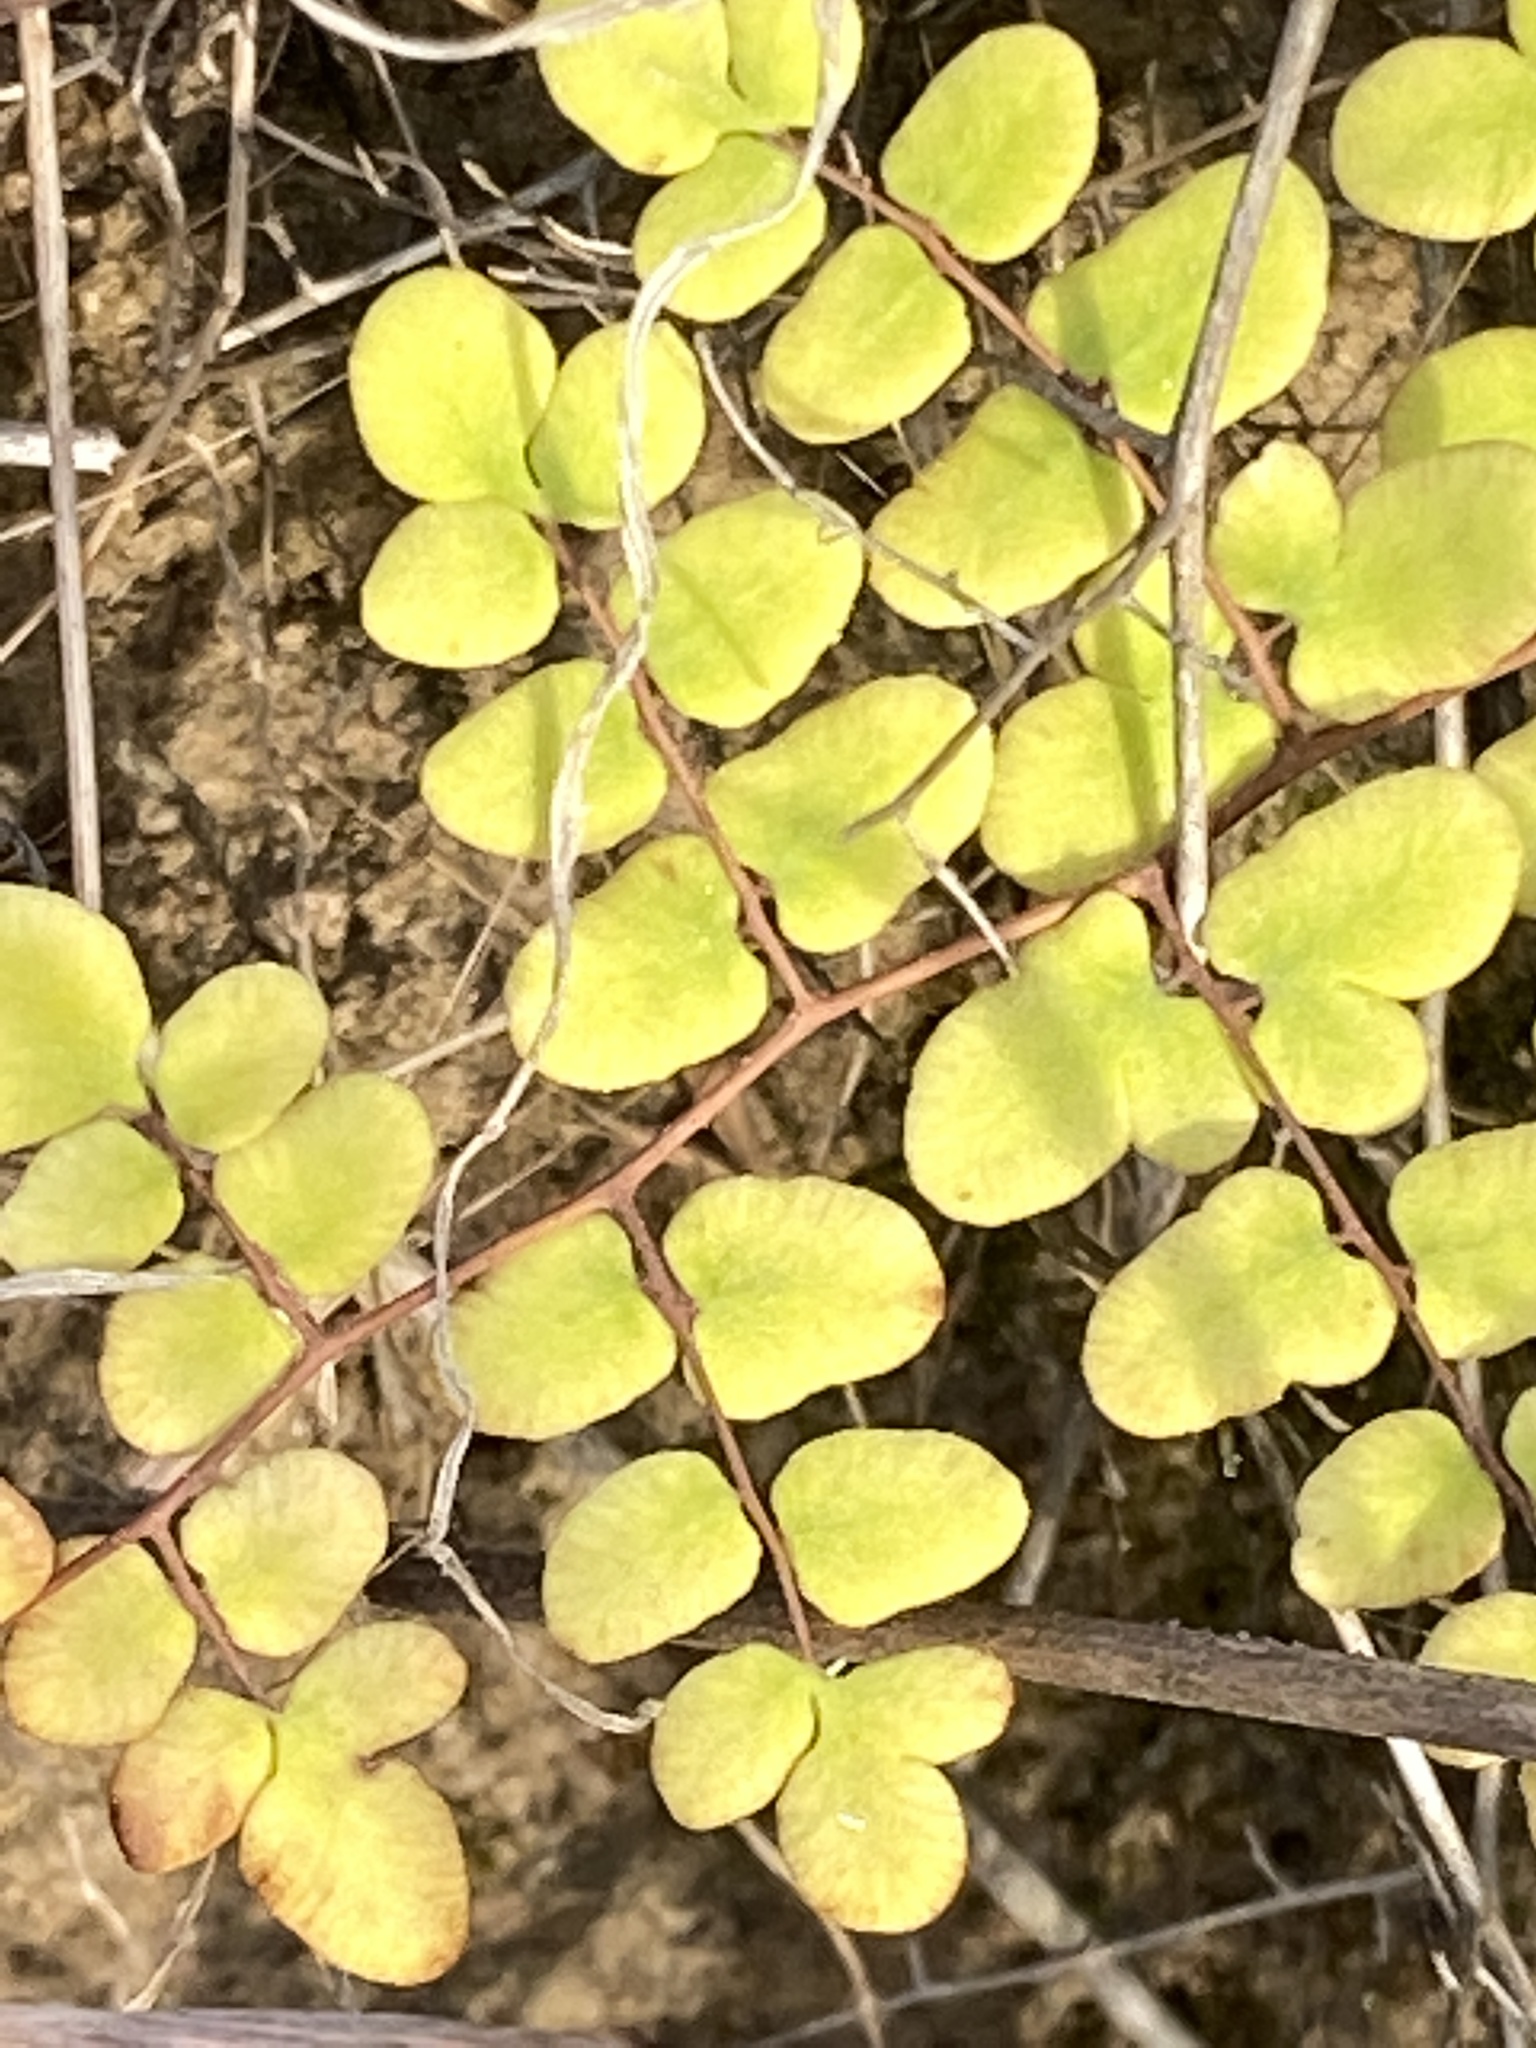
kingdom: Plantae
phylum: Tracheophyta
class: Polypodiopsida
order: Polypodiales
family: Pteridaceae
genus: Pellaea
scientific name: Pellaea andromedifolia
